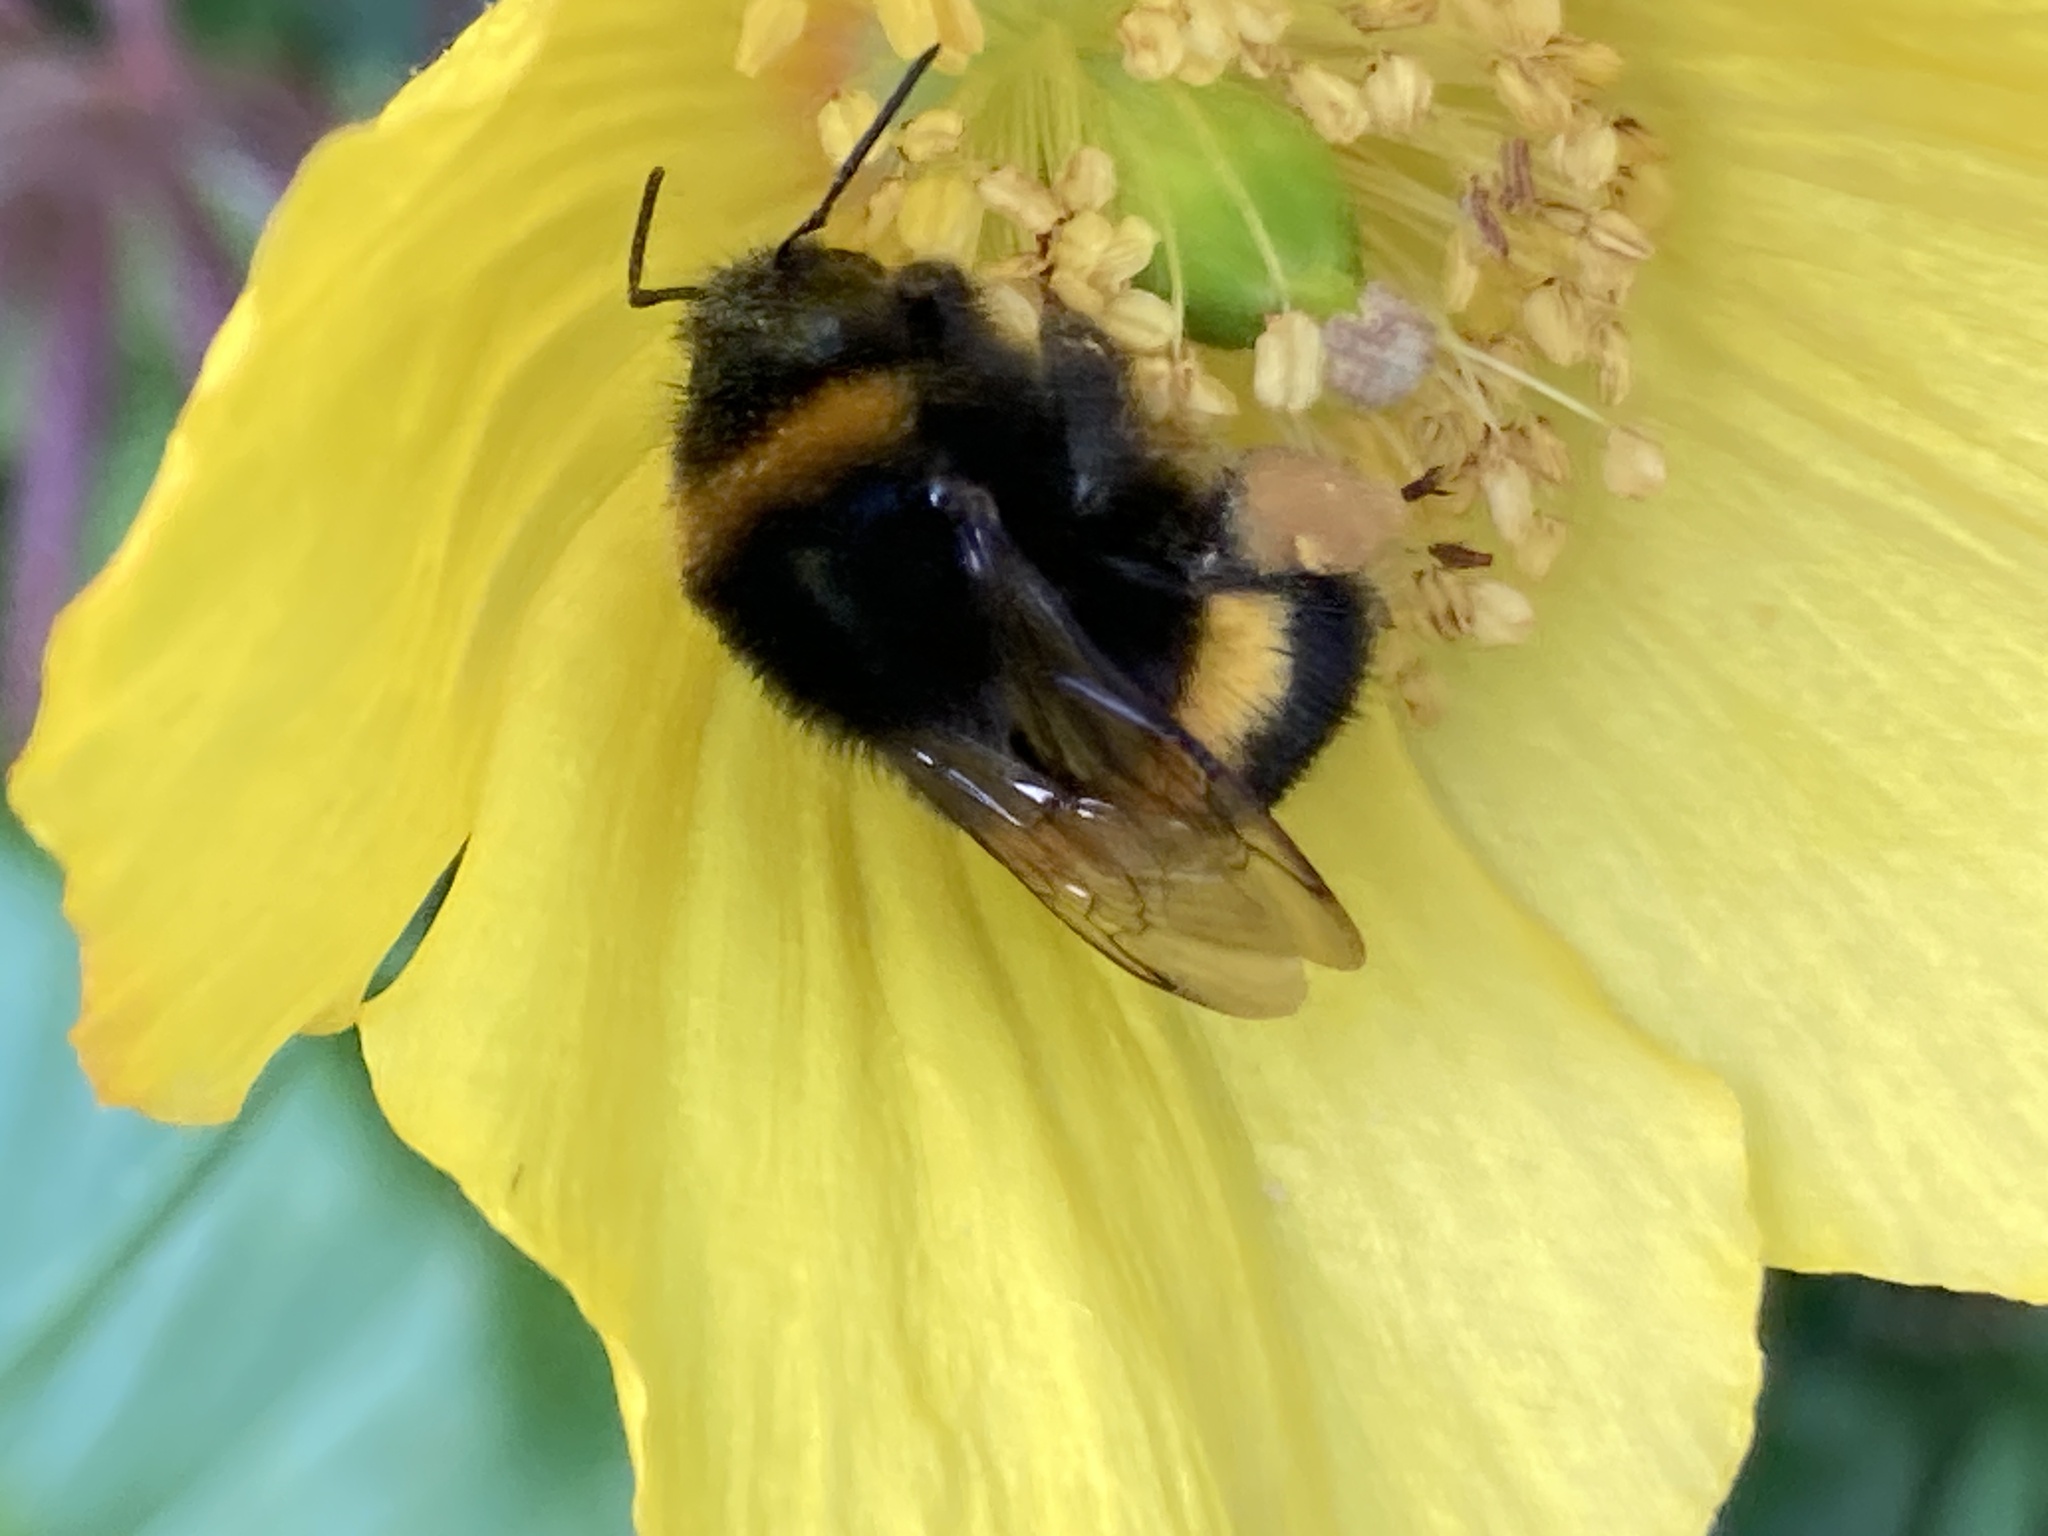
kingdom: Animalia
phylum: Arthropoda
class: Insecta
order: Hymenoptera
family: Apidae
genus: Bombus
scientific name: Bombus terrestris
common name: Buff-tailed bumblebee
